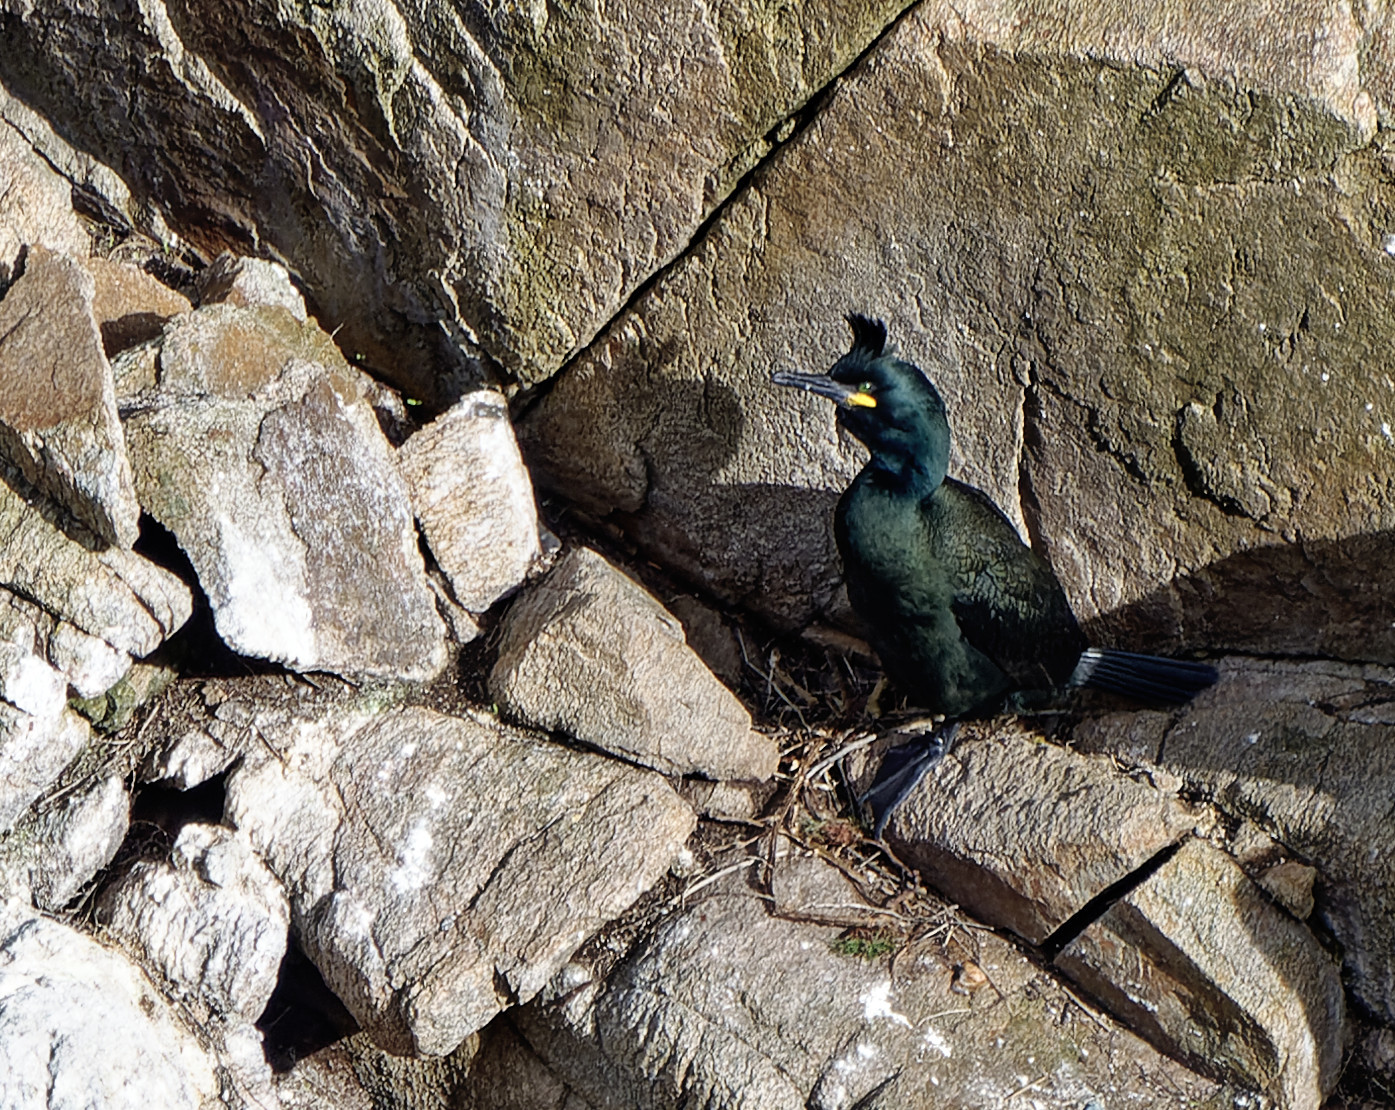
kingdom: Animalia
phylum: Chordata
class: Aves
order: Suliformes
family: Phalacrocoracidae
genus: Phalacrocorax
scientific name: Phalacrocorax aristotelis
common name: European shag
